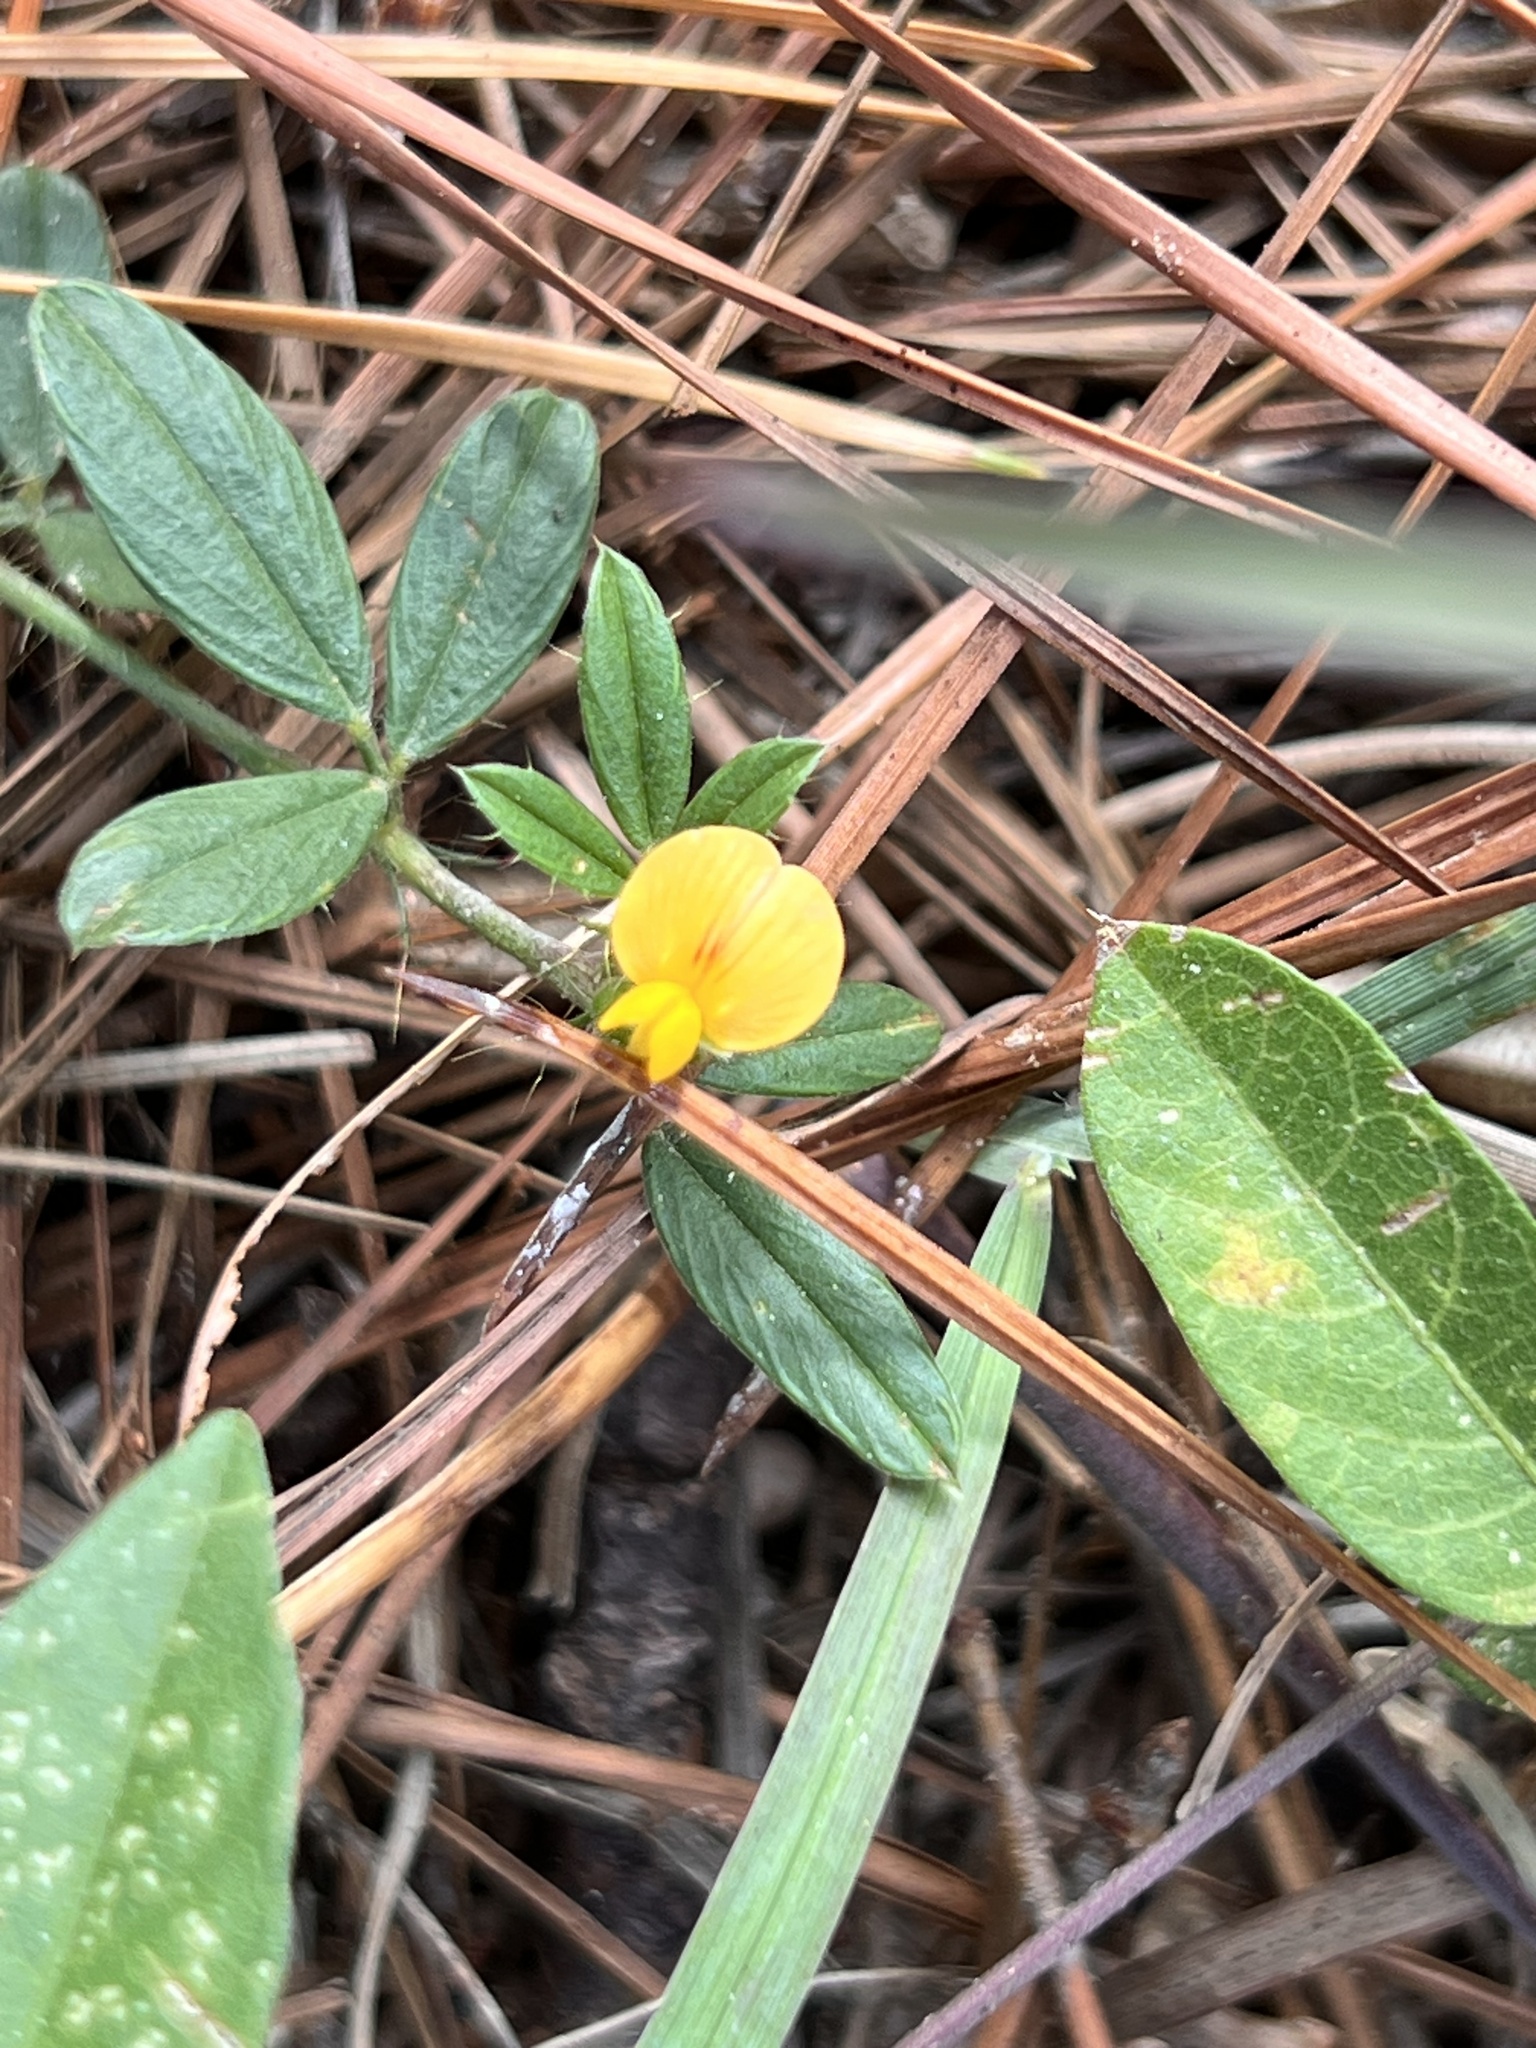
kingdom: Plantae
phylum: Tracheophyta
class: Magnoliopsida
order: Fabales
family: Fabaceae
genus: Stylosanthes
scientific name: Stylosanthes biflora
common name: Two-flower pencil-flower
